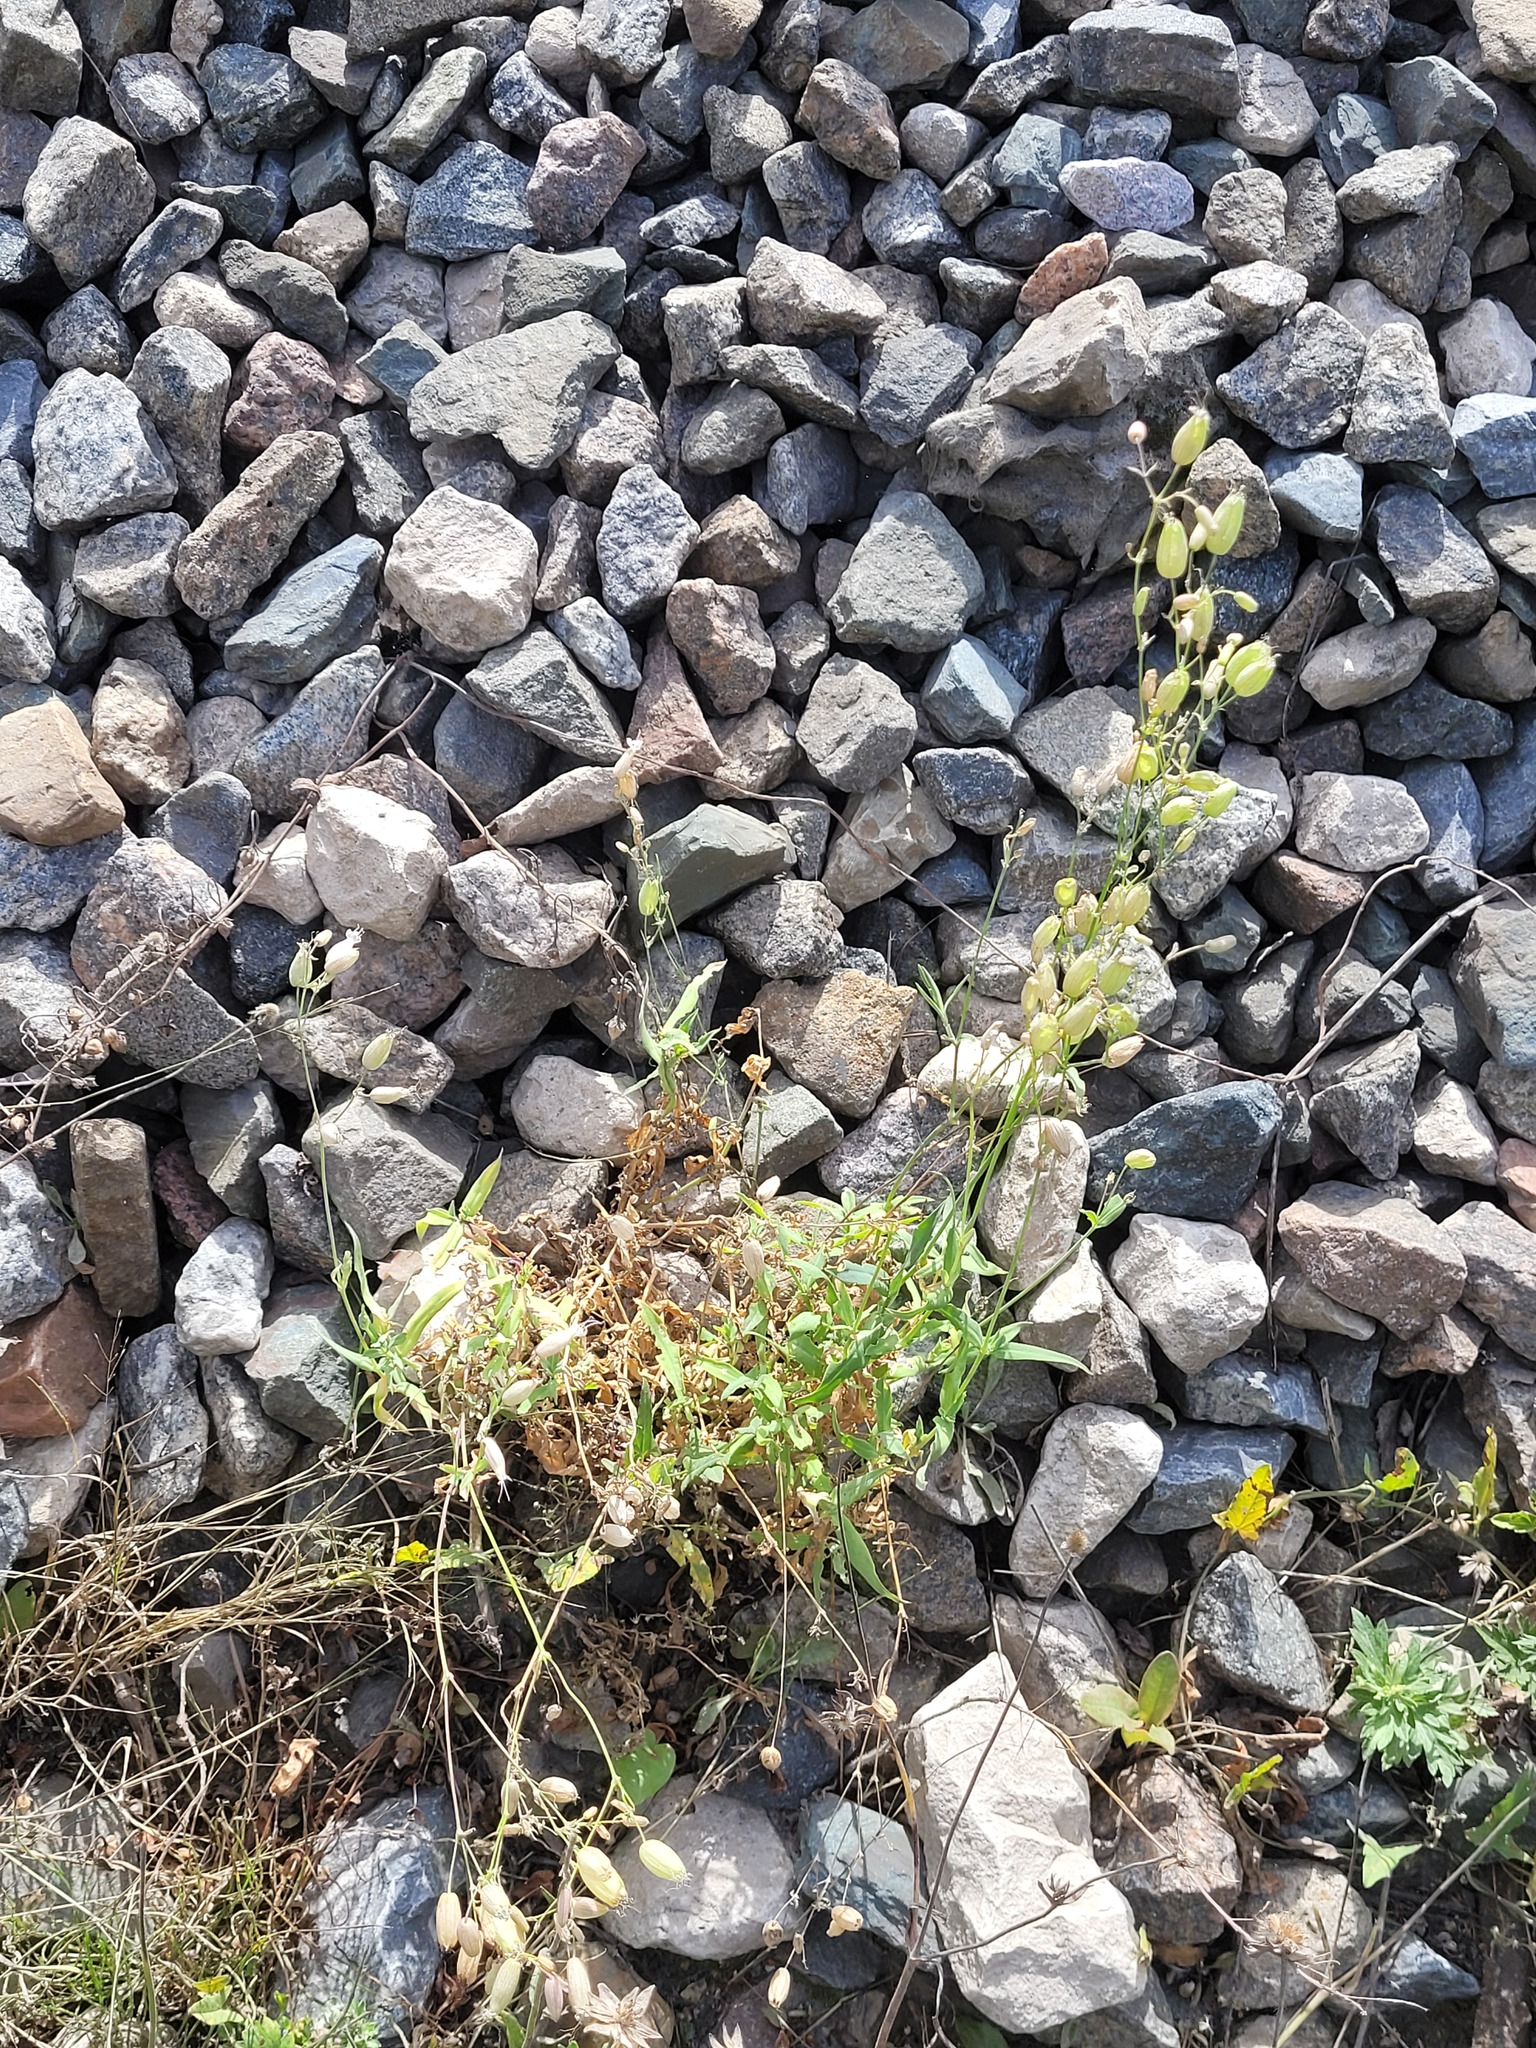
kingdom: Plantae
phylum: Tracheophyta
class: Magnoliopsida
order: Caryophyllales
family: Caryophyllaceae
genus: Silene
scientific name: Silene vulgaris
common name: Bladder campion
